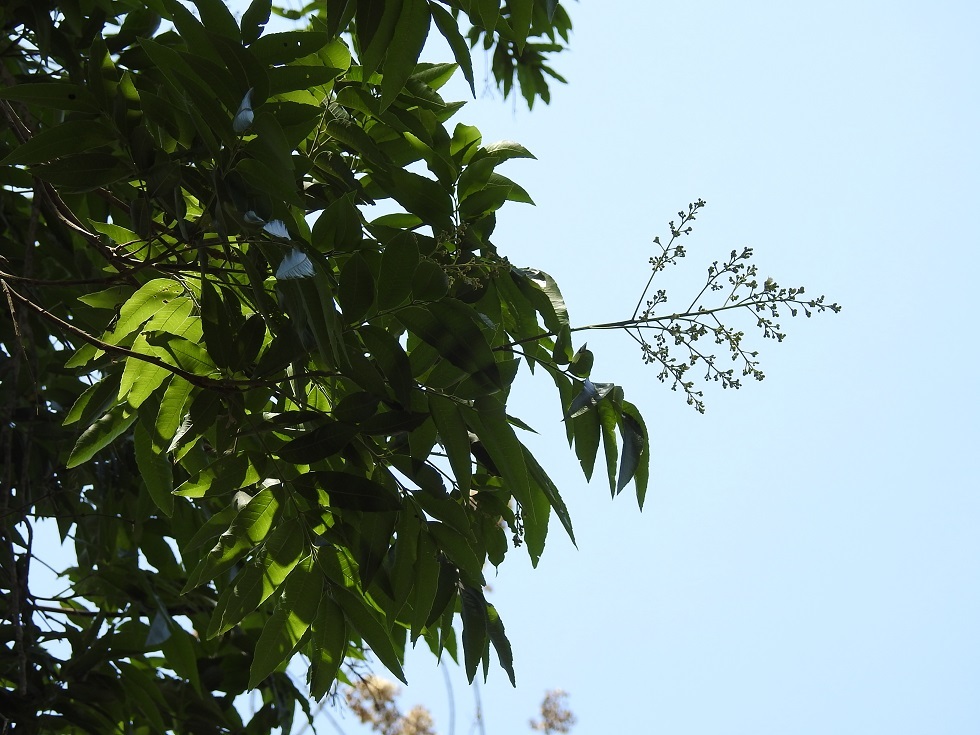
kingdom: Plantae
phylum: Tracheophyta
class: Magnoliopsida
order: Sapindales
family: Sapindaceae
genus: Thouinidium
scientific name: Thouinidium decandrum
